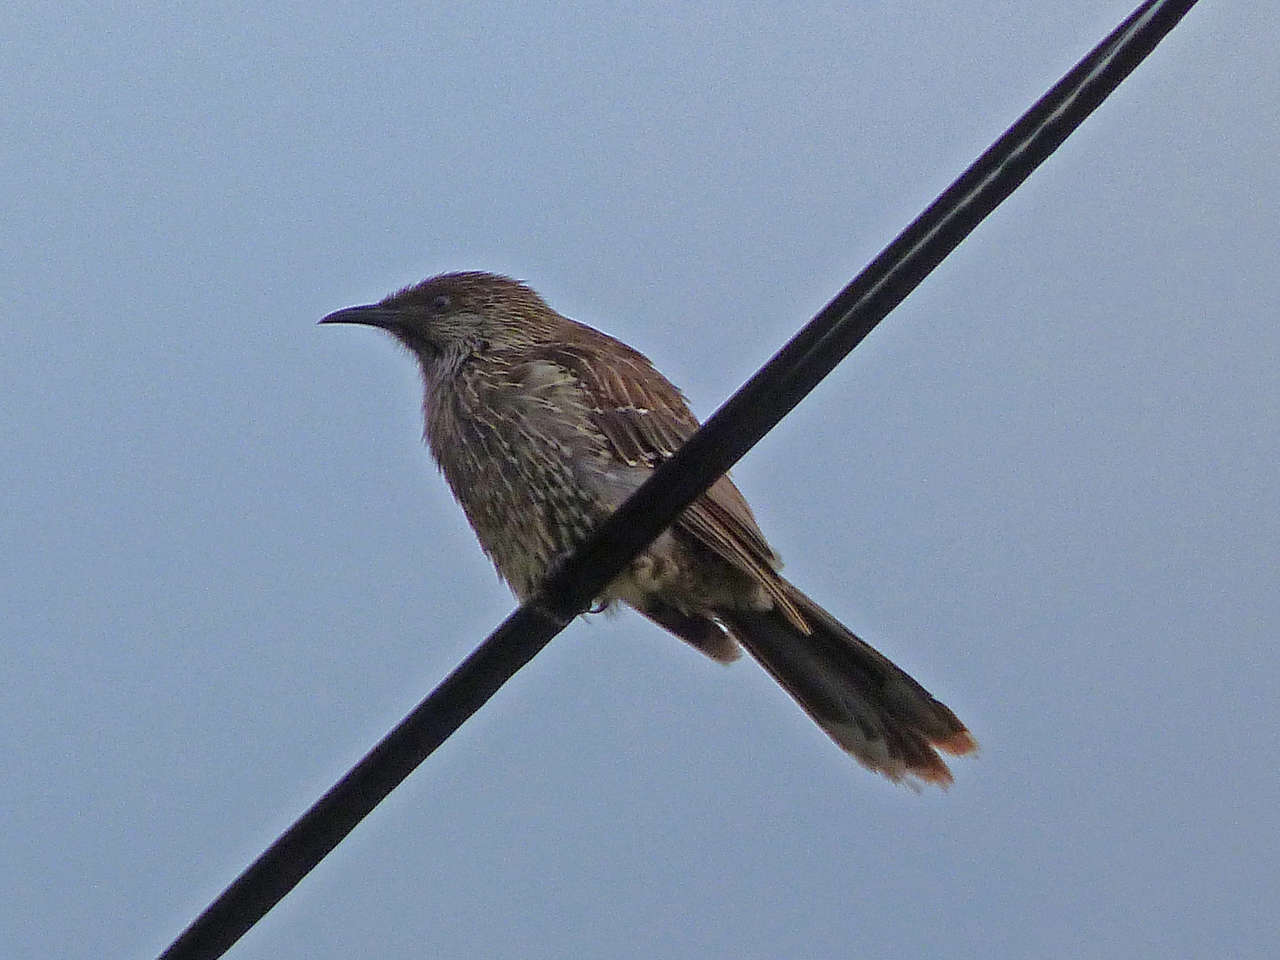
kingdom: Animalia
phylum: Chordata
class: Aves
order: Passeriformes
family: Meliphagidae
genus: Anthochaera
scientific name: Anthochaera chrysoptera
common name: Little wattlebird
